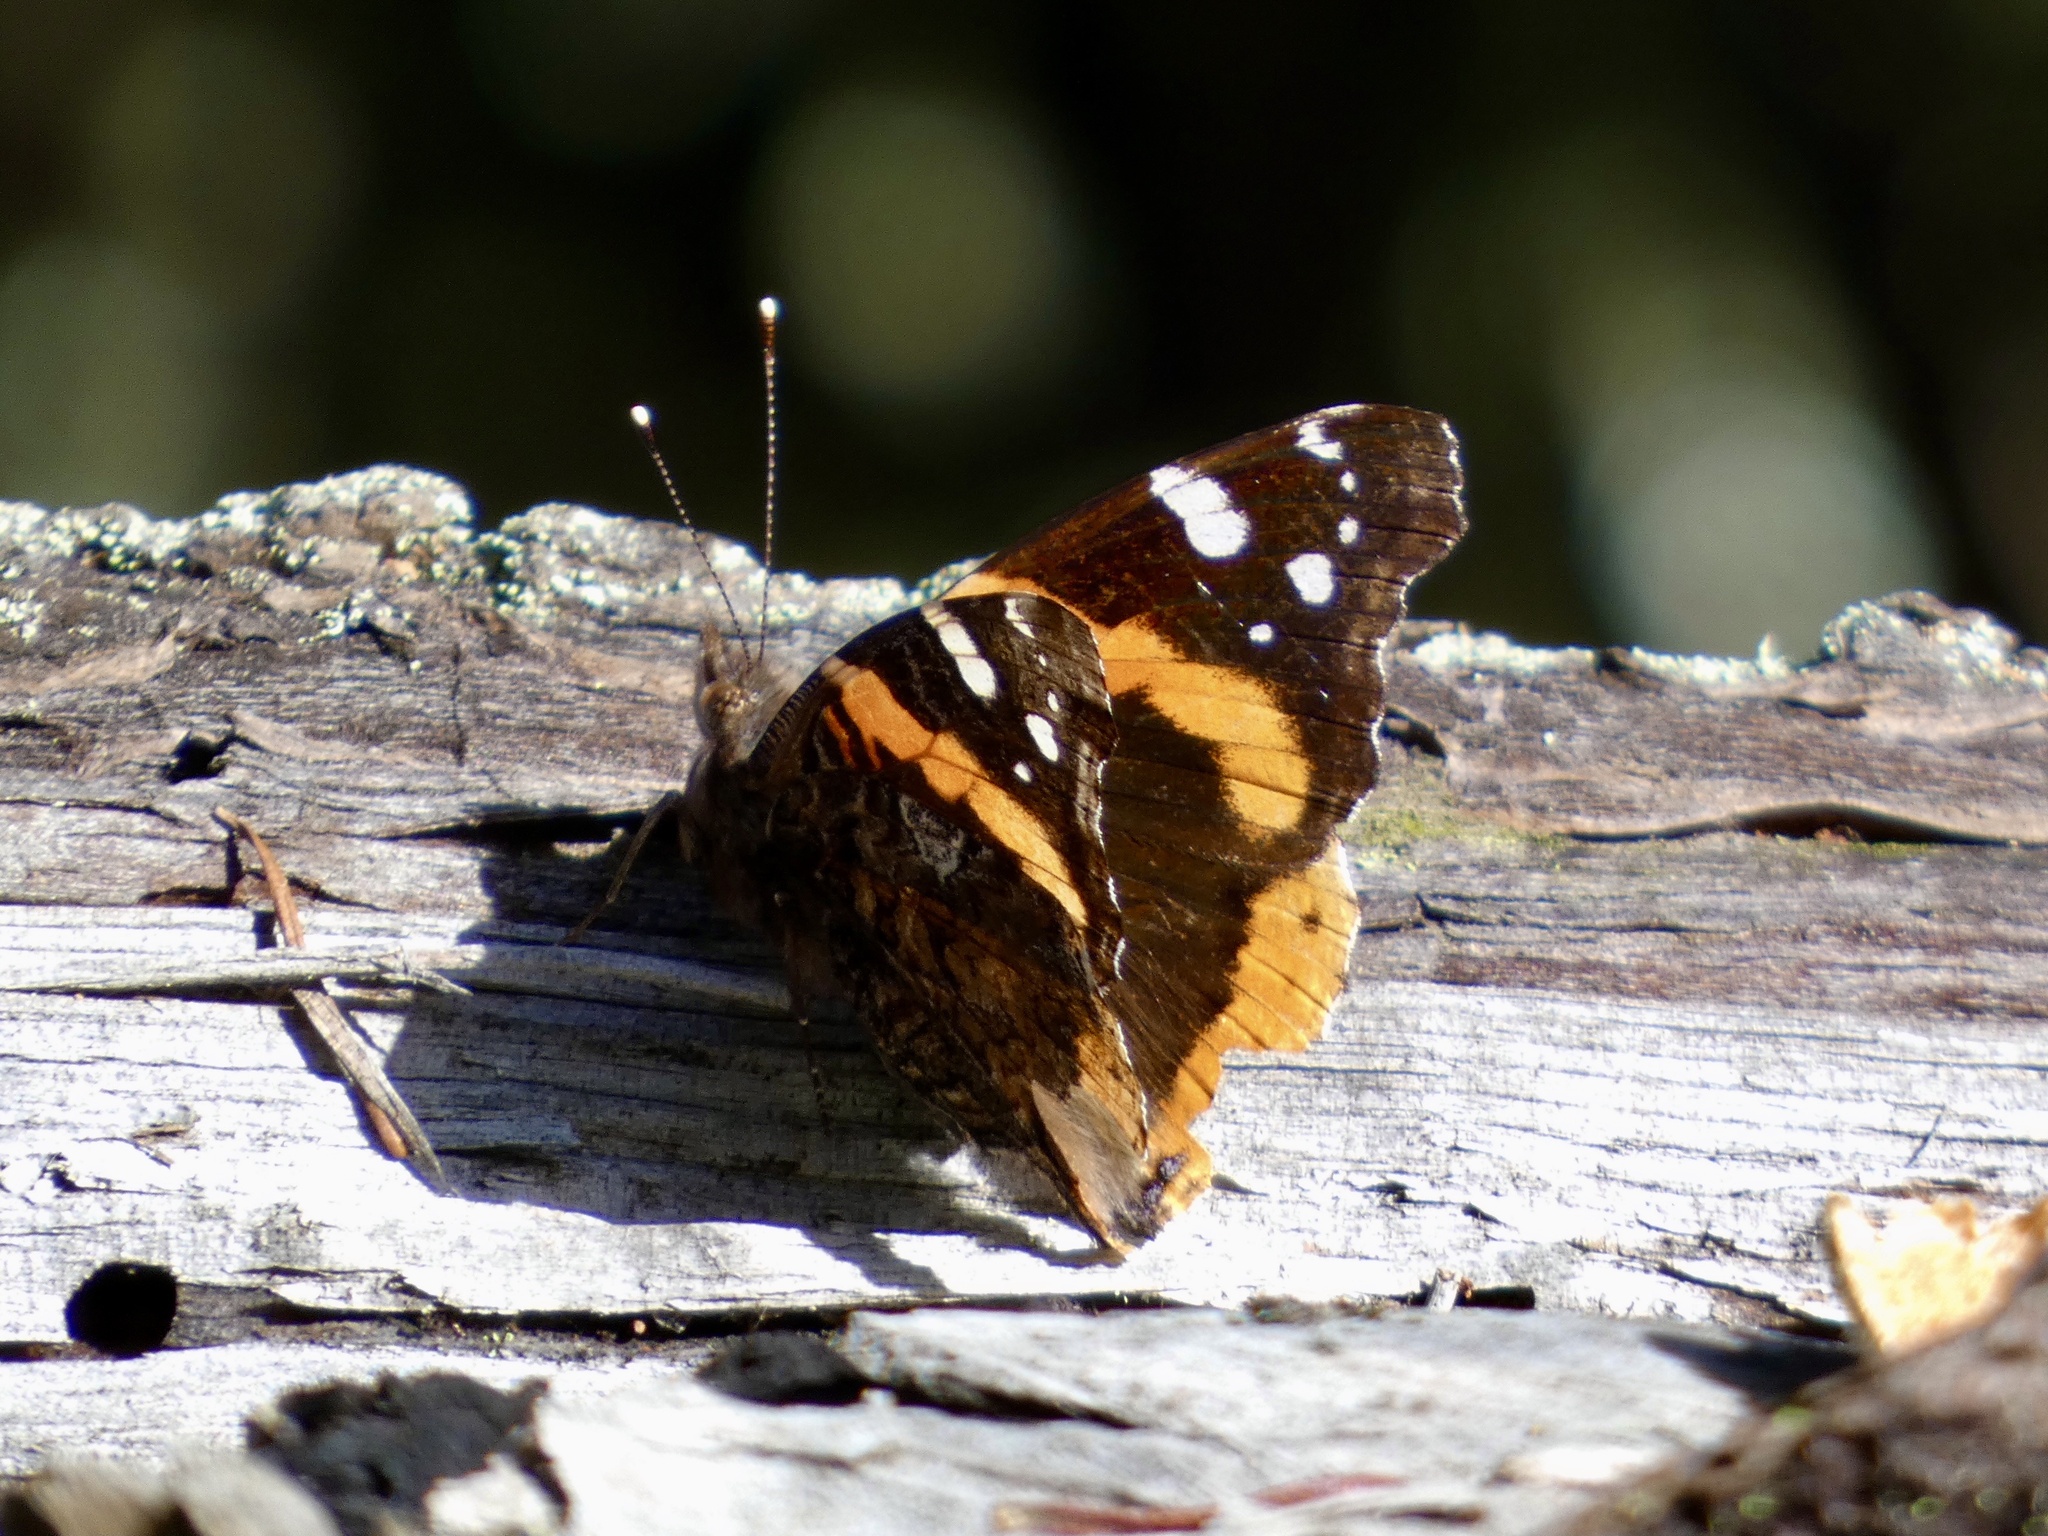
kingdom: Animalia
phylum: Arthropoda
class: Insecta
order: Lepidoptera
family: Nymphalidae
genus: Vanessa
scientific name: Vanessa atalanta
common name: Red admiral
